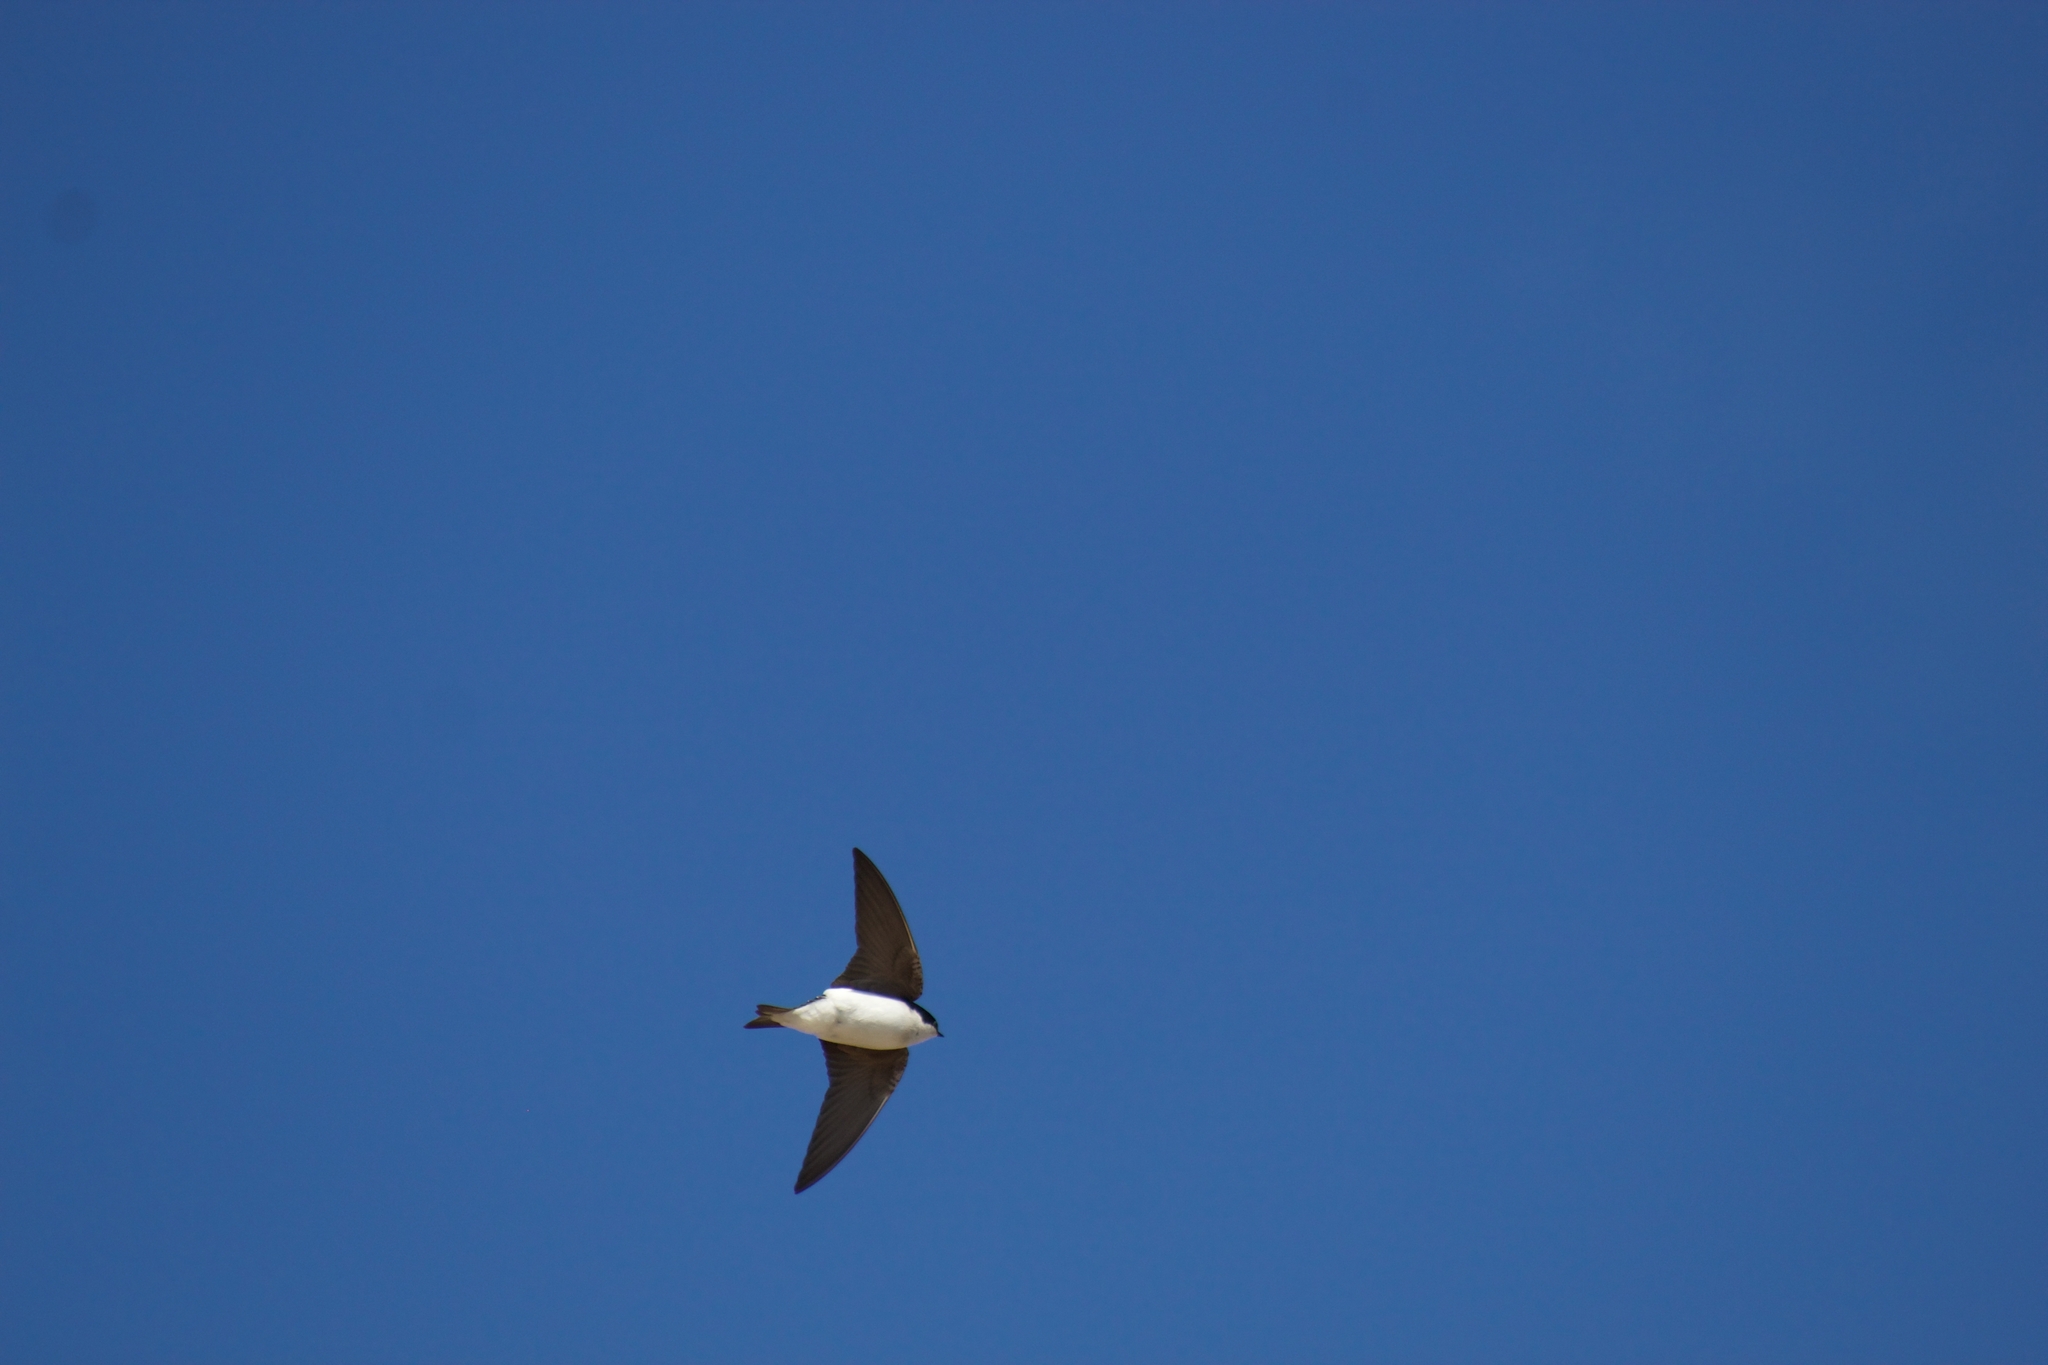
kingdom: Animalia
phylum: Chordata
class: Aves
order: Passeriformes
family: Hirundinidae
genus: Tachycineta
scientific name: Tachycineta bicolor
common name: Tree swallow
